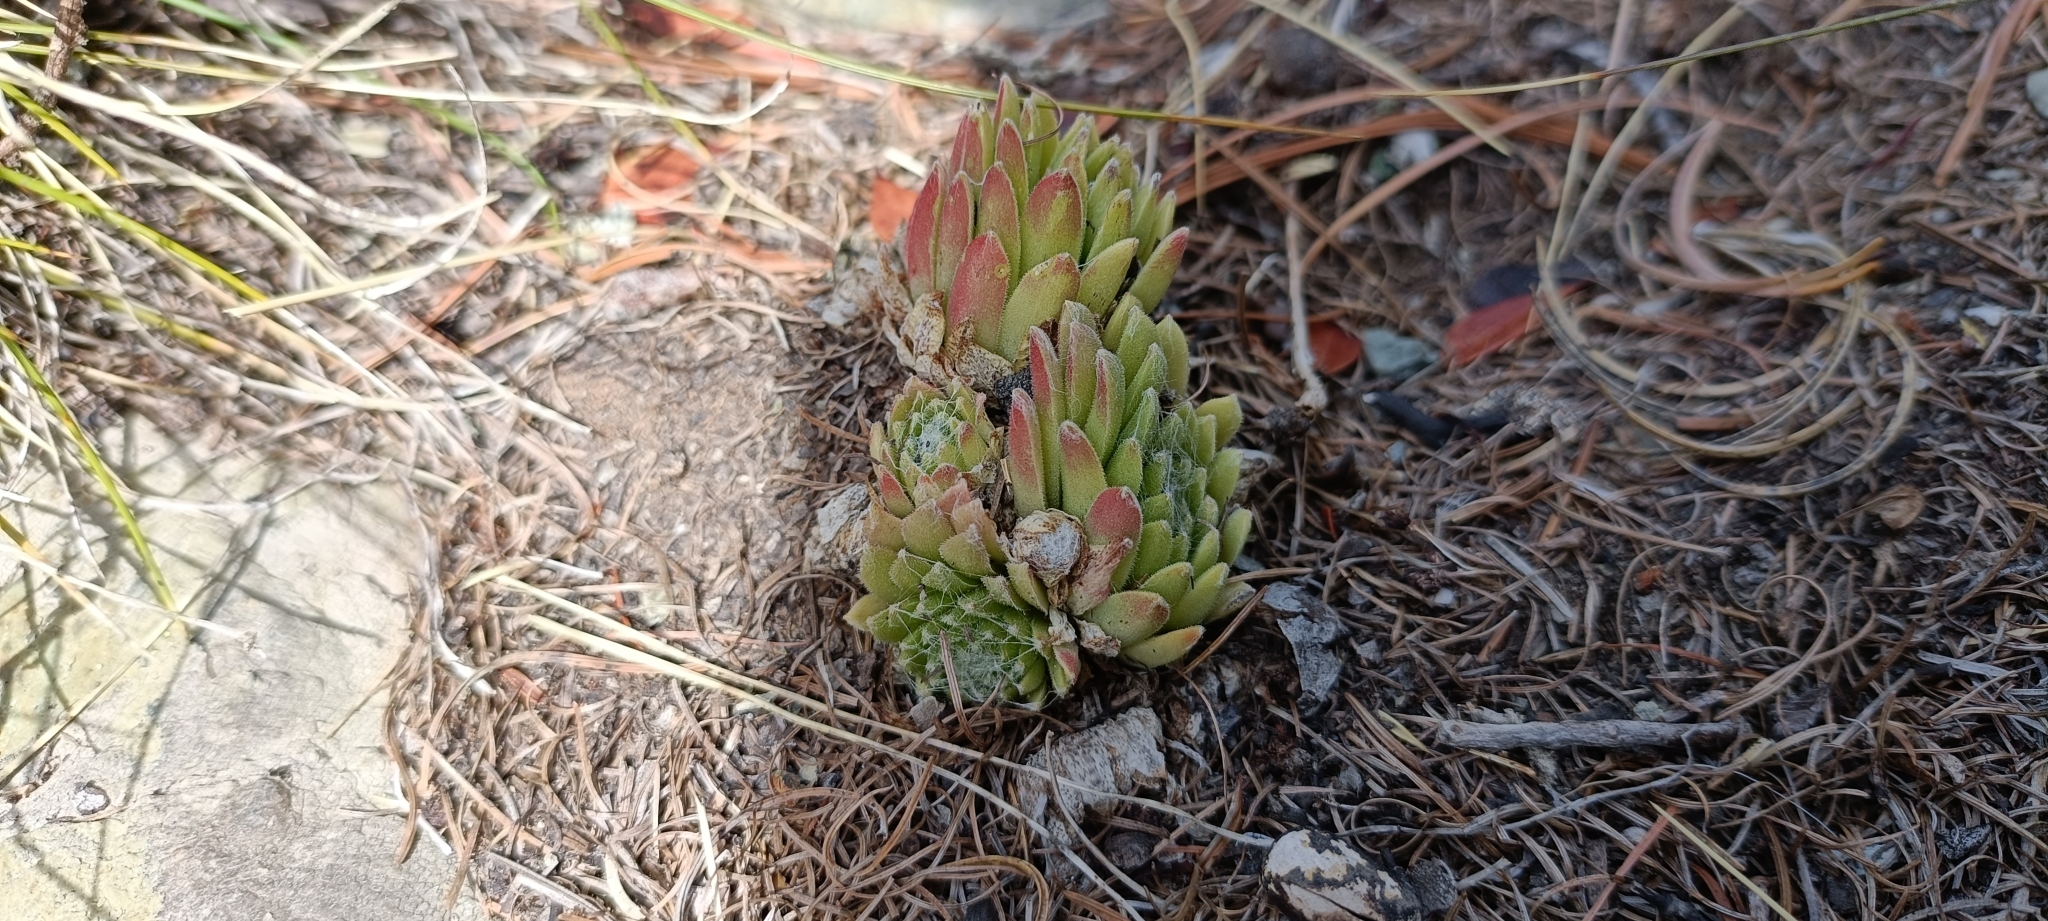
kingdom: Plantae
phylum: Tracheophyta
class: Magnoliopsida
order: Saxifragales
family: Crassulaceae
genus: Sempervivum
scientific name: Sempervivum arachnoideum
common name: Cobweb house-leek
